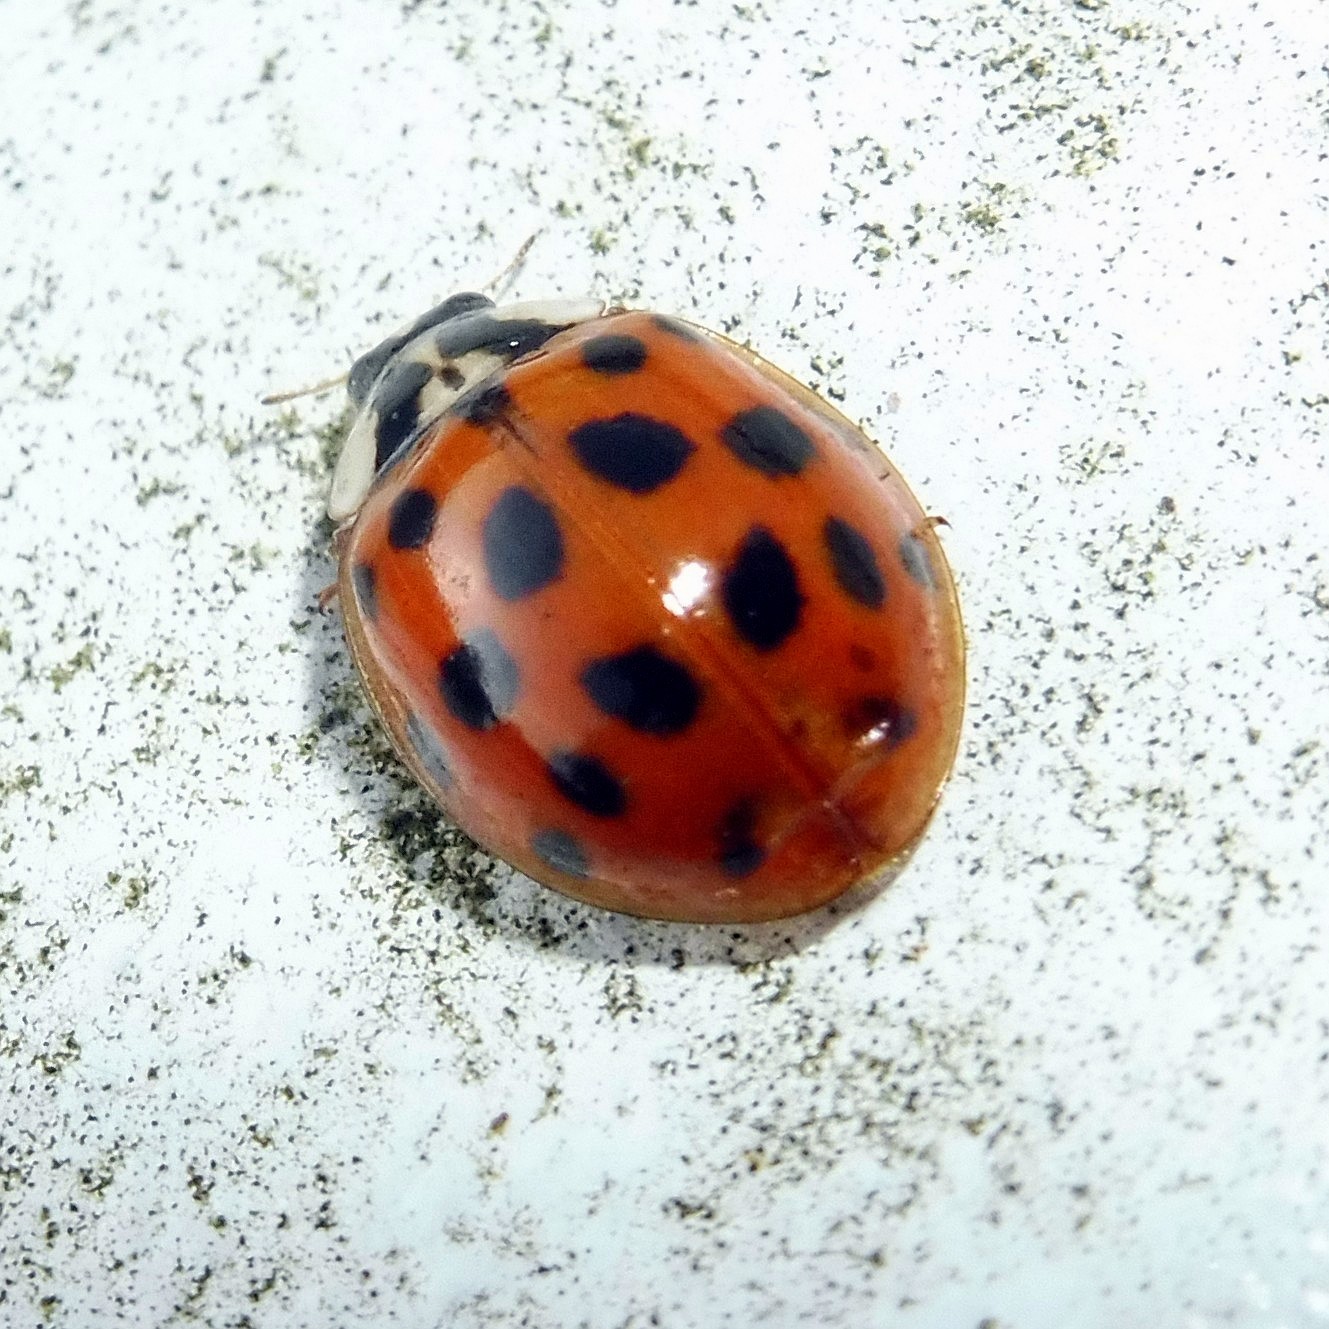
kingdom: Animalia
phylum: Arthropoda
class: Insecta
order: Coleoptera
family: Coccinellidae
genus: Harmonia
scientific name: Harmonia axyridis
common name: Harlequin ladybird
